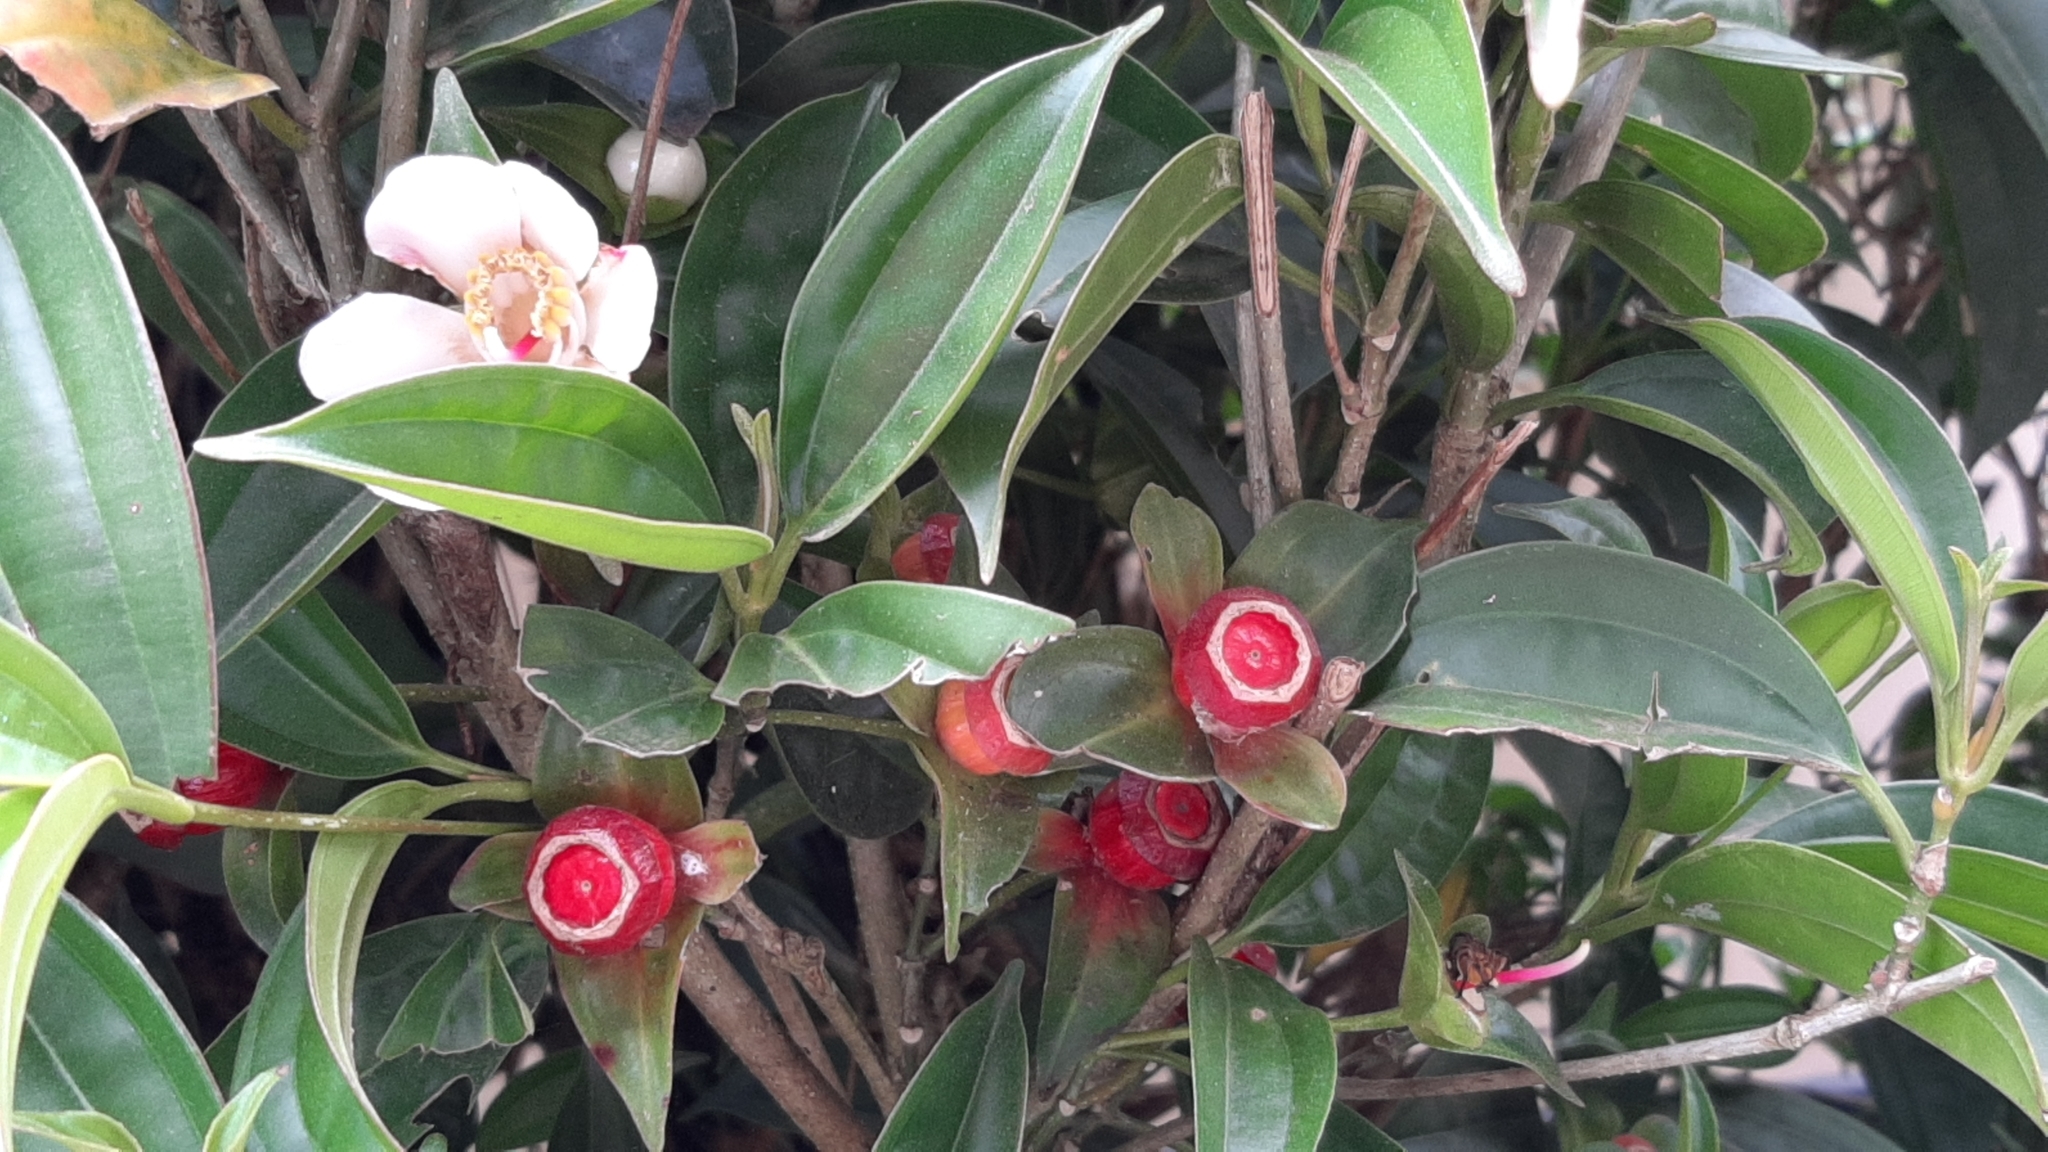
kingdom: Plantae
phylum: Tracheophyta
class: Magnoliopsida
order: Myrtales
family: Melastomataceae
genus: Blakea
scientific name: Blakea gracilis
